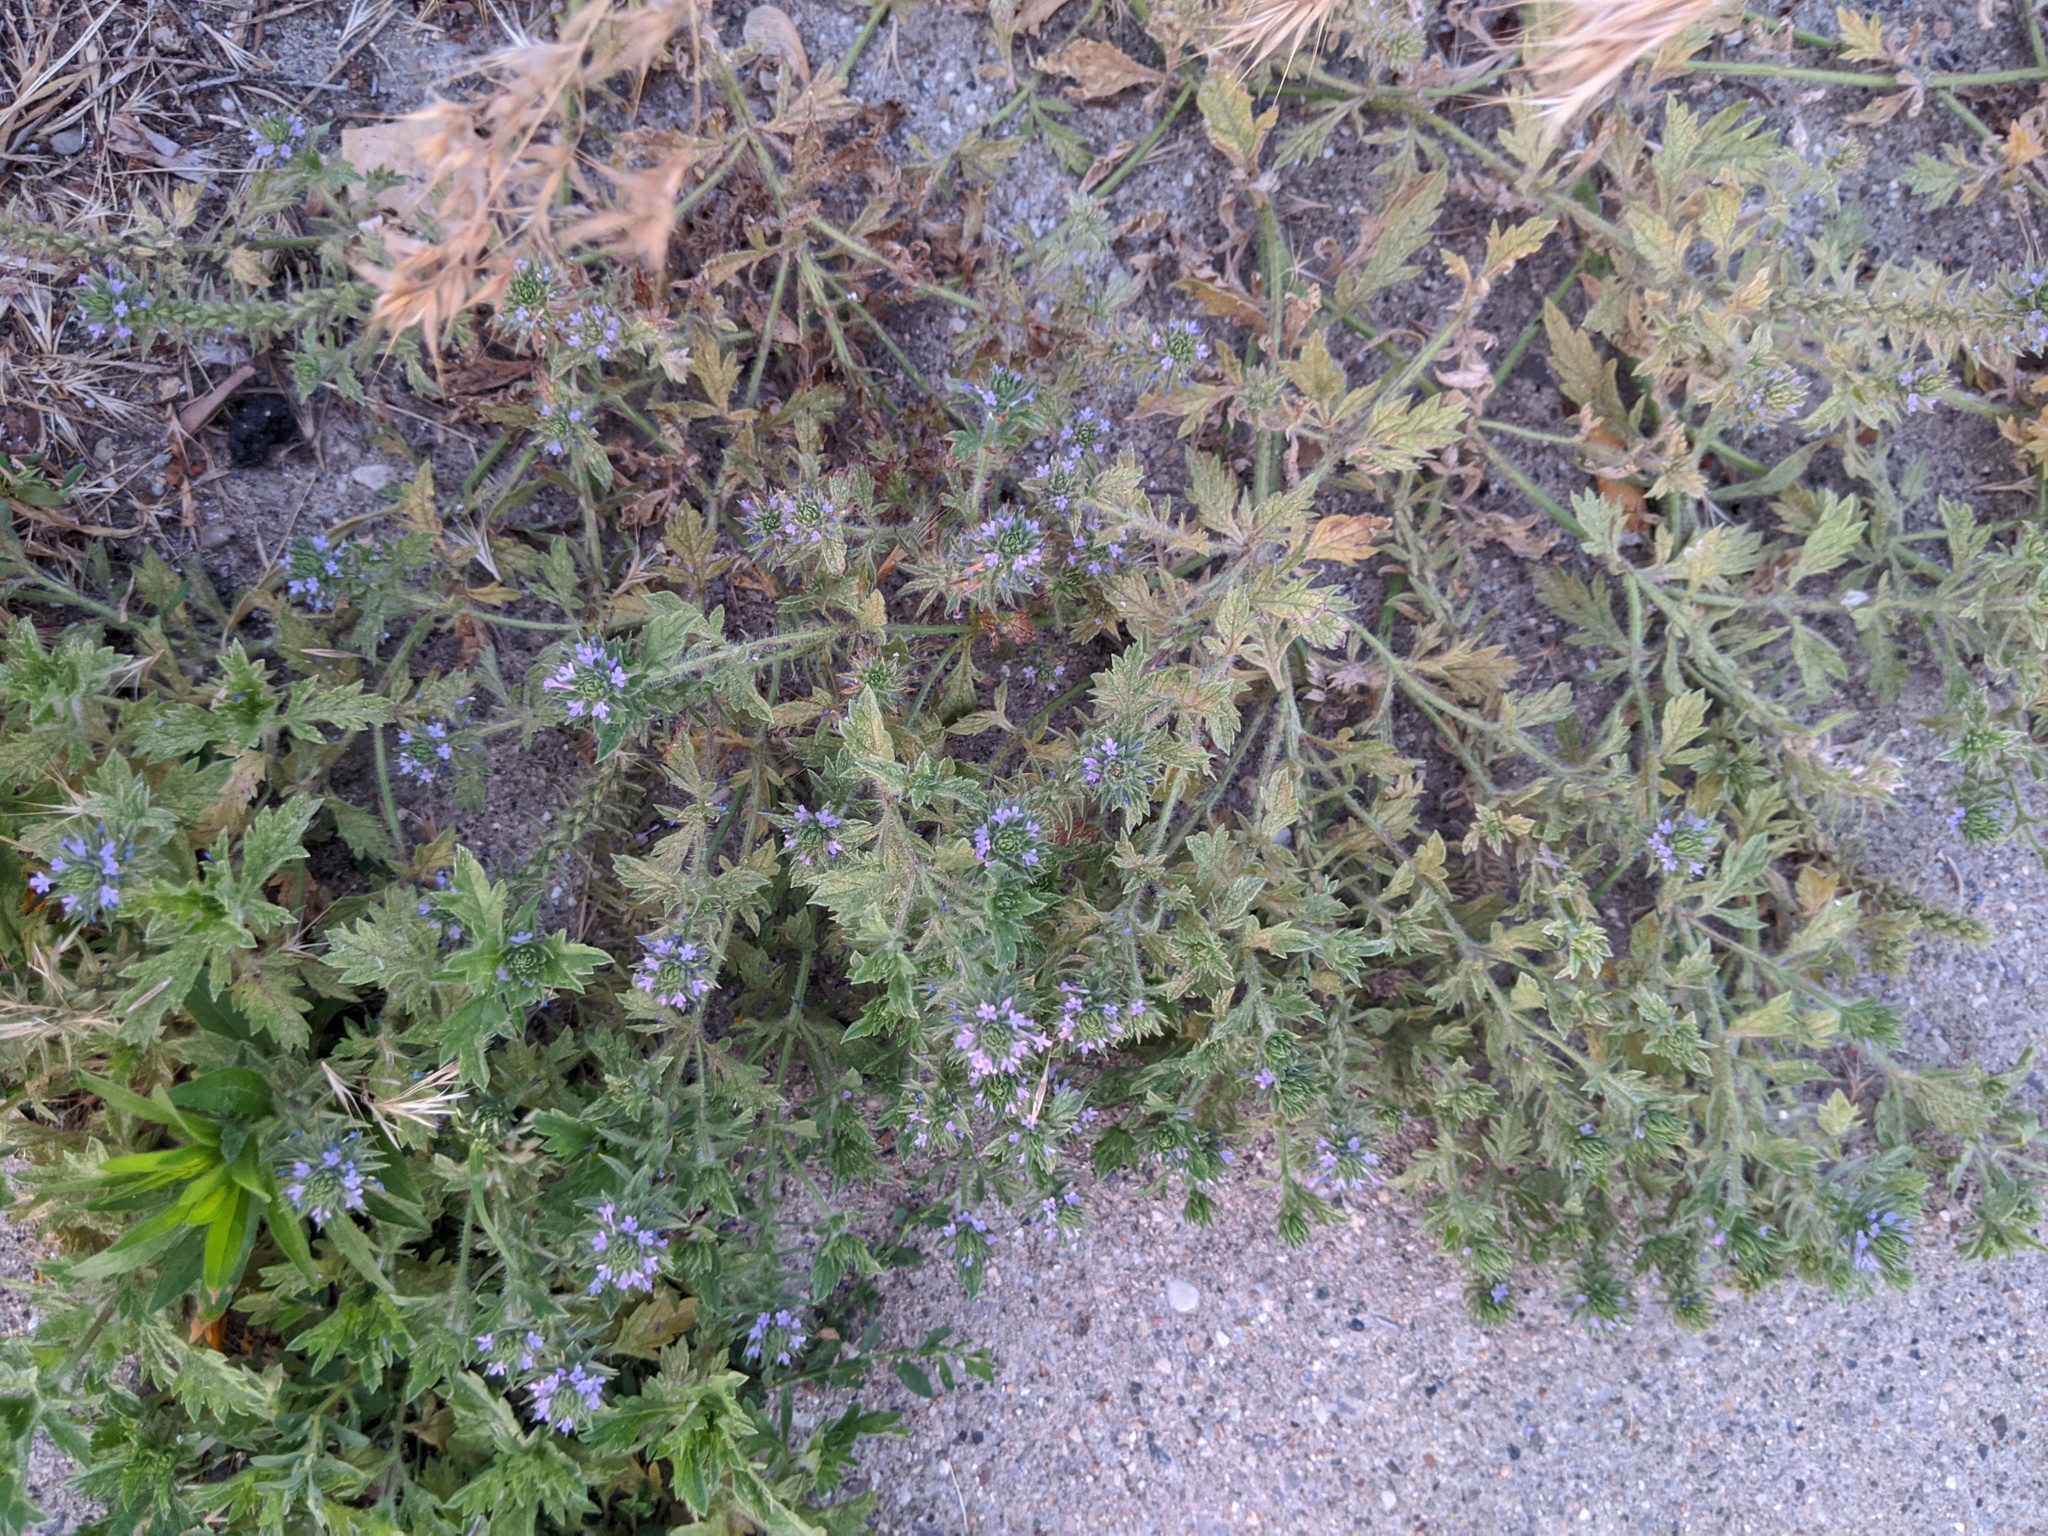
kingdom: Plantae
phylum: Tracheophyta
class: Magnoliopsida
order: Lamiales
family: Verbenaceae
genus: Verbena
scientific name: Verbena bracteata
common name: Bracted vervain
